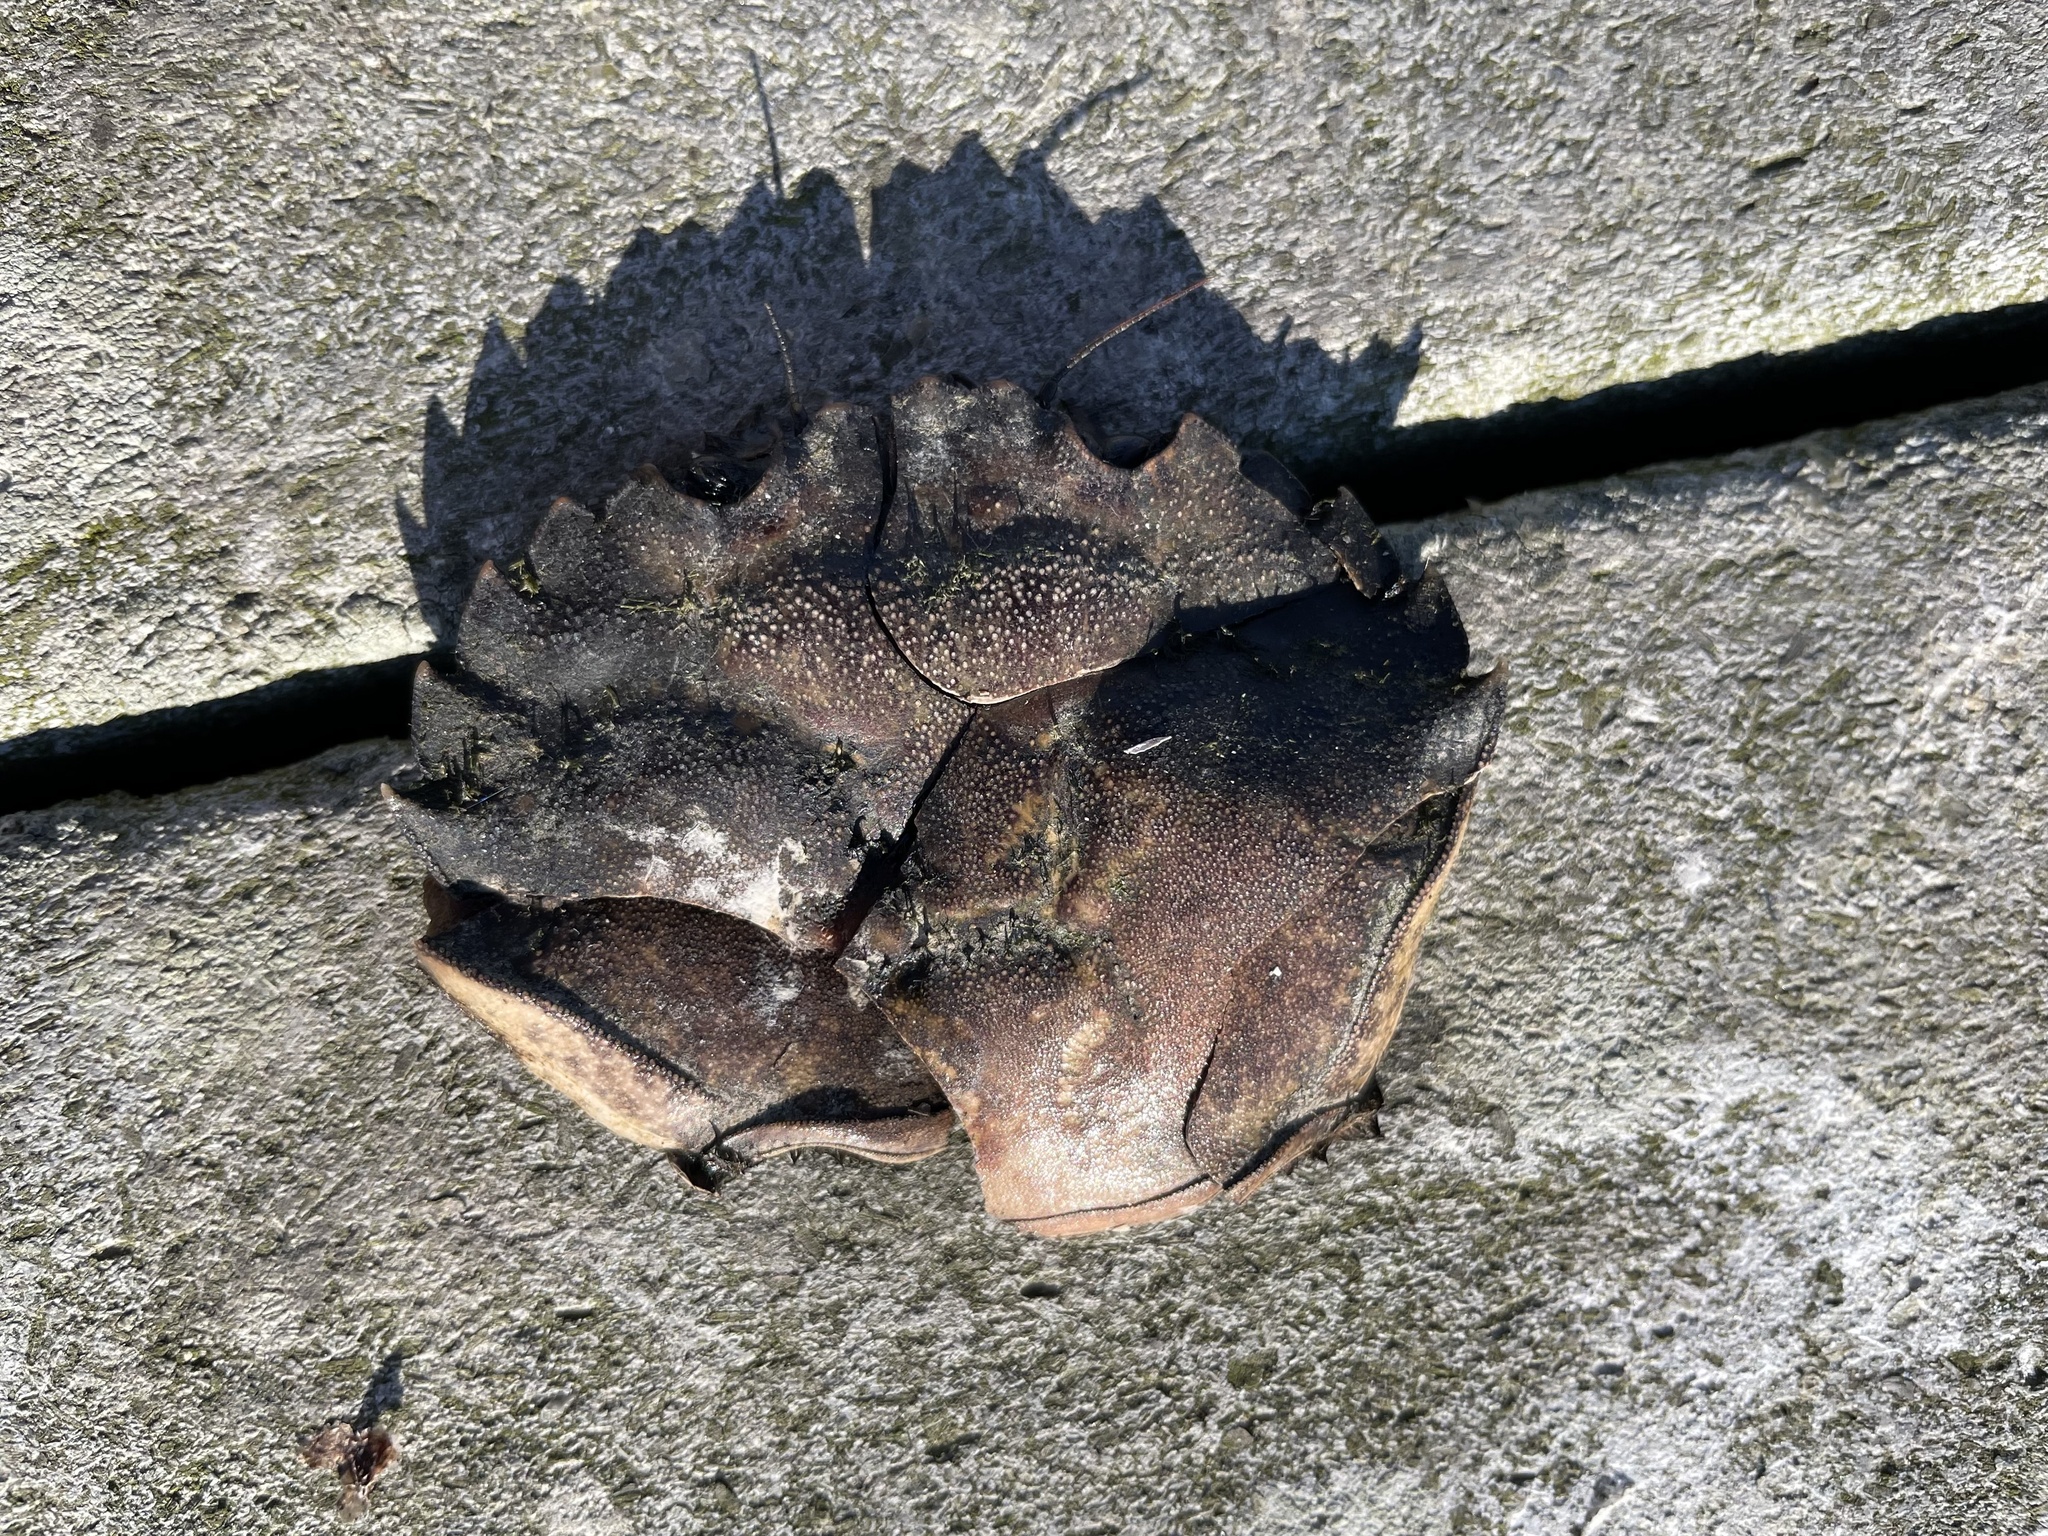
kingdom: Animalia
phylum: Arthropoda
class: Malacostraca
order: Decapoda
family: Carcinidae
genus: Carcinus
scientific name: Carcinus maenas
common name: European green crab
